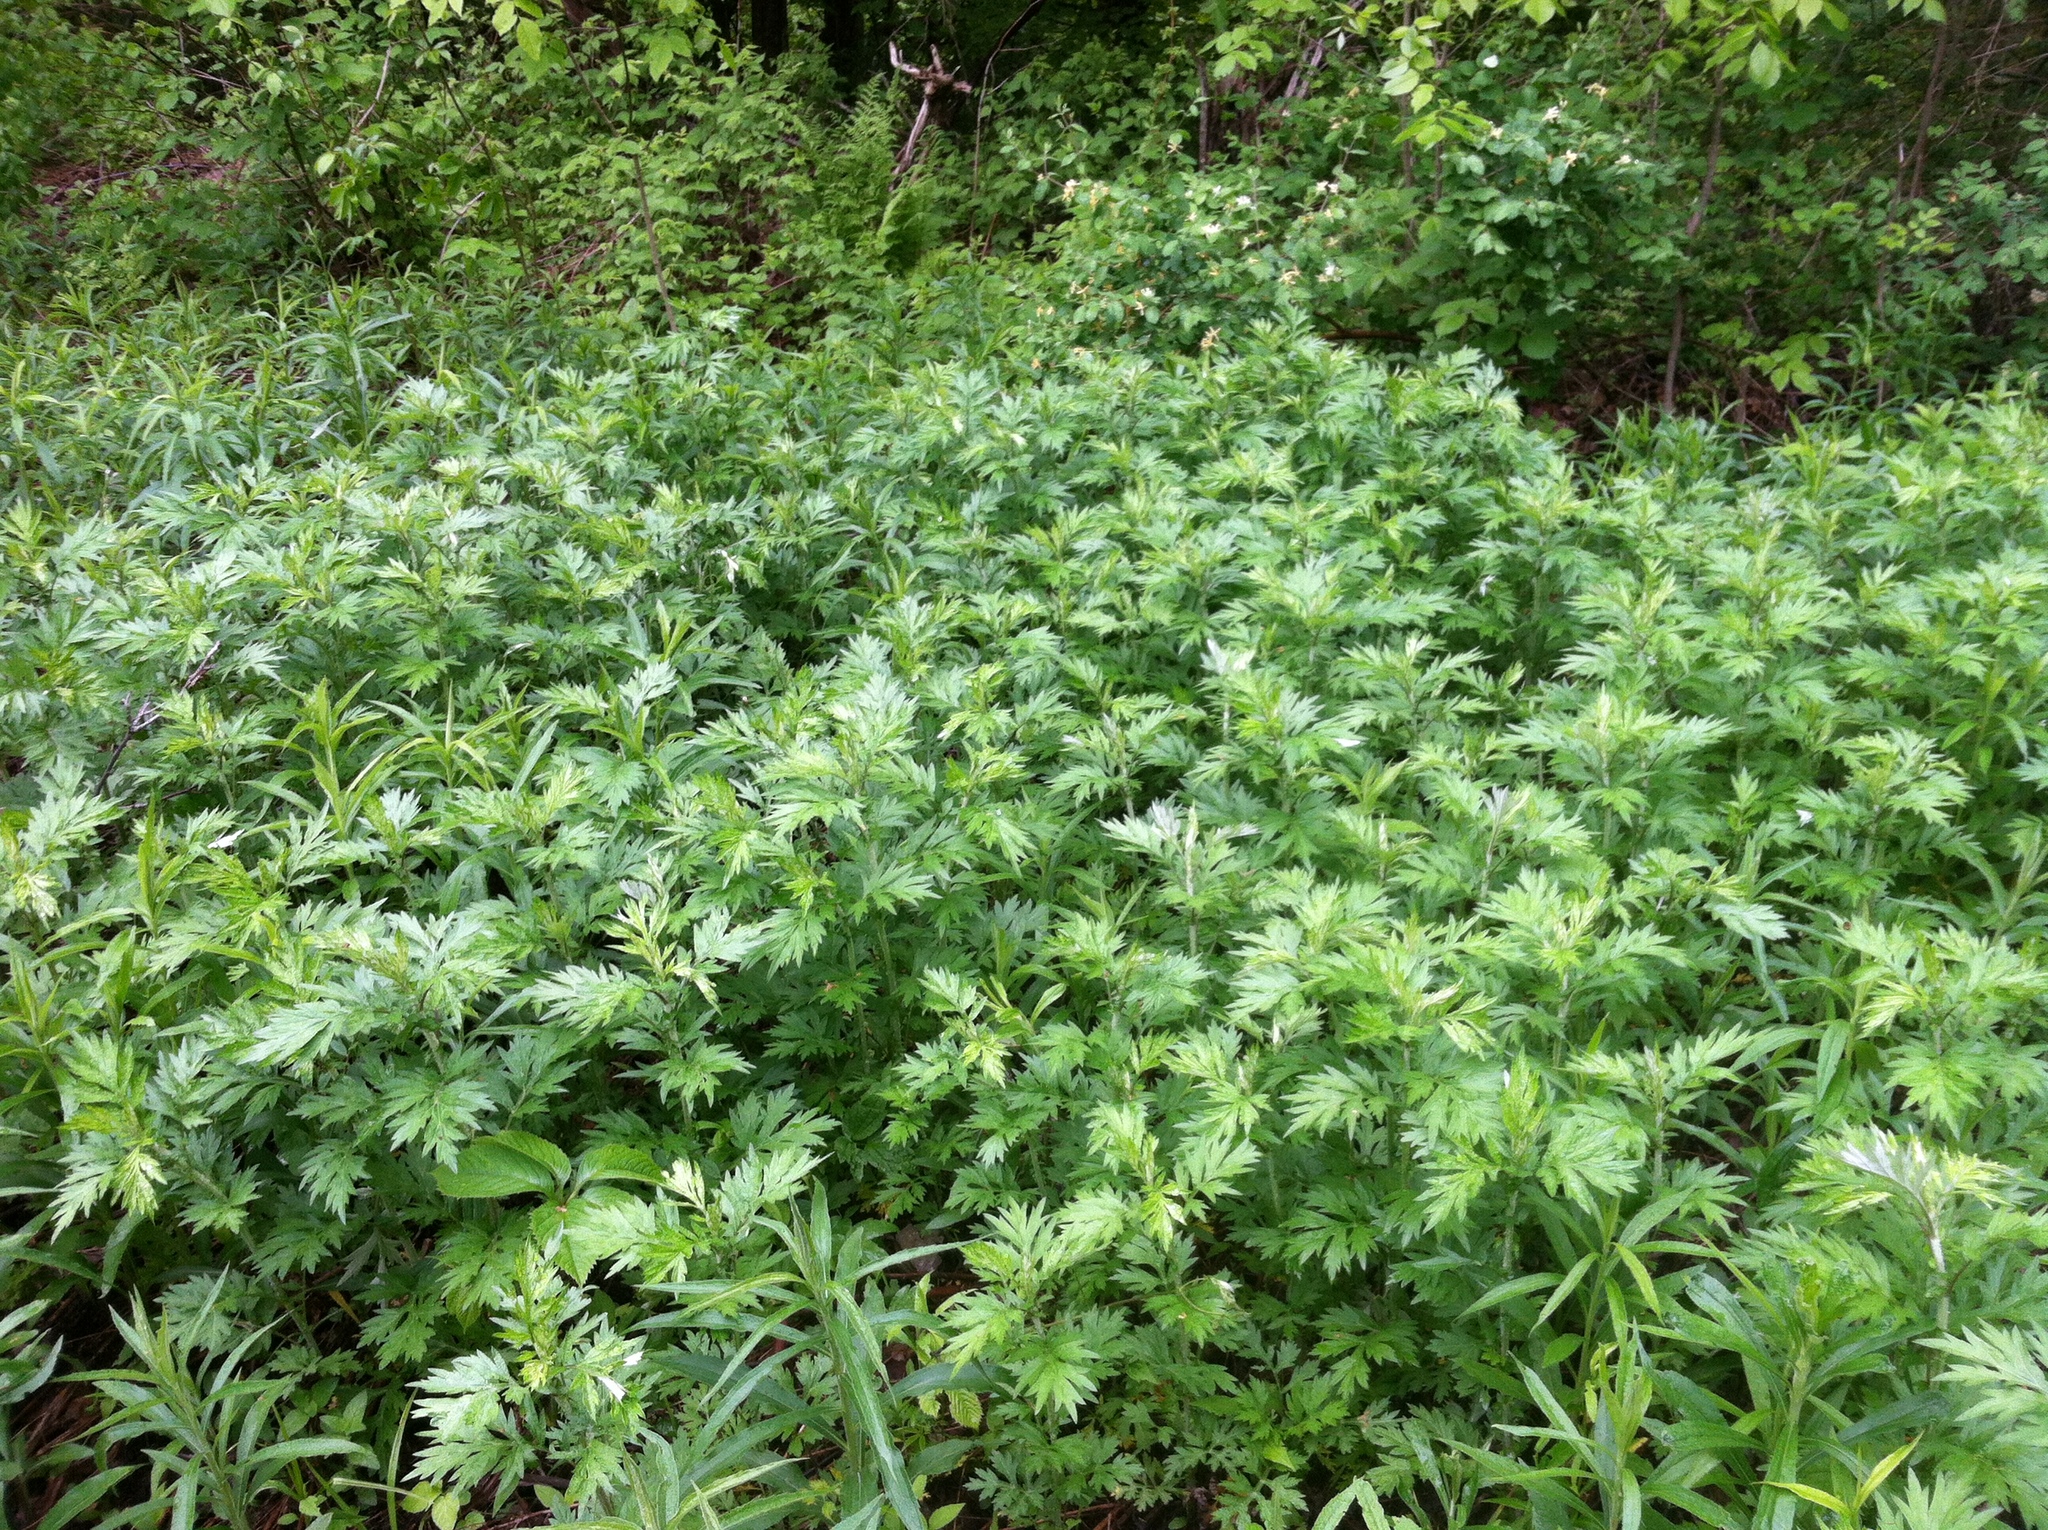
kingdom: Plantae
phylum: Tracheophyta
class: Magnoliopsida
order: Asterales
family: Asteraceae
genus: Artemisia
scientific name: Artemisia vulgaris
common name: Mugwort
